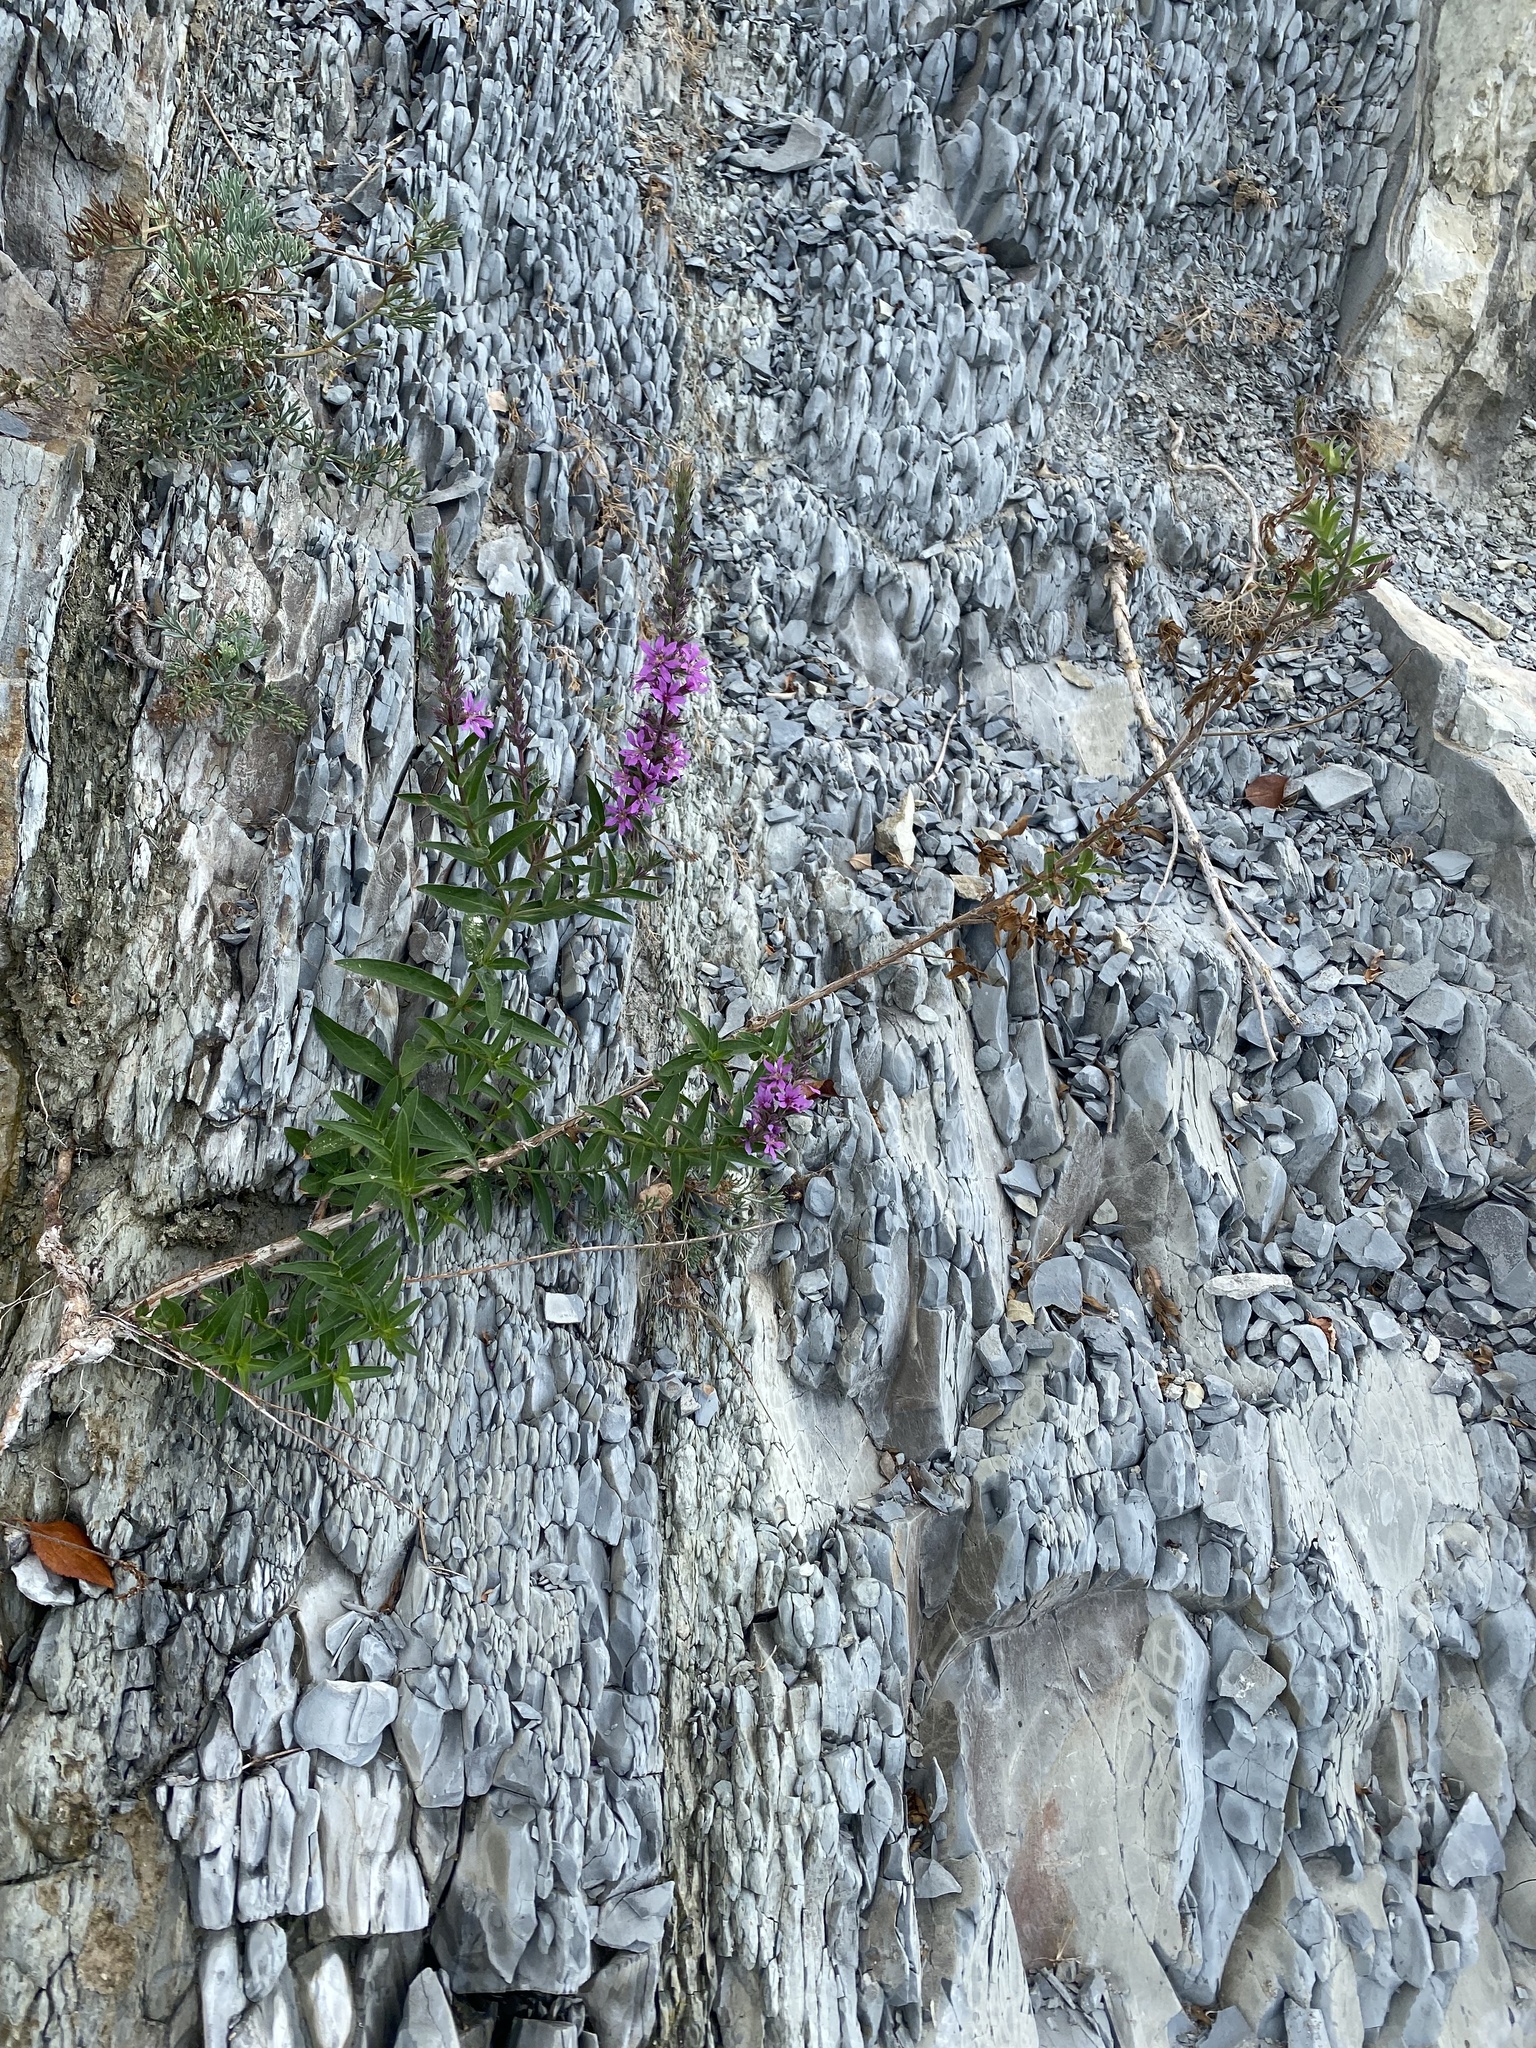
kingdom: Plantae
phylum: Tracheophyta
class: Magnoliopsida
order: Myrtales
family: Lythraceae
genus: Lythrum
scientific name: Lythrum salicaria
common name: Purple loosestrife
